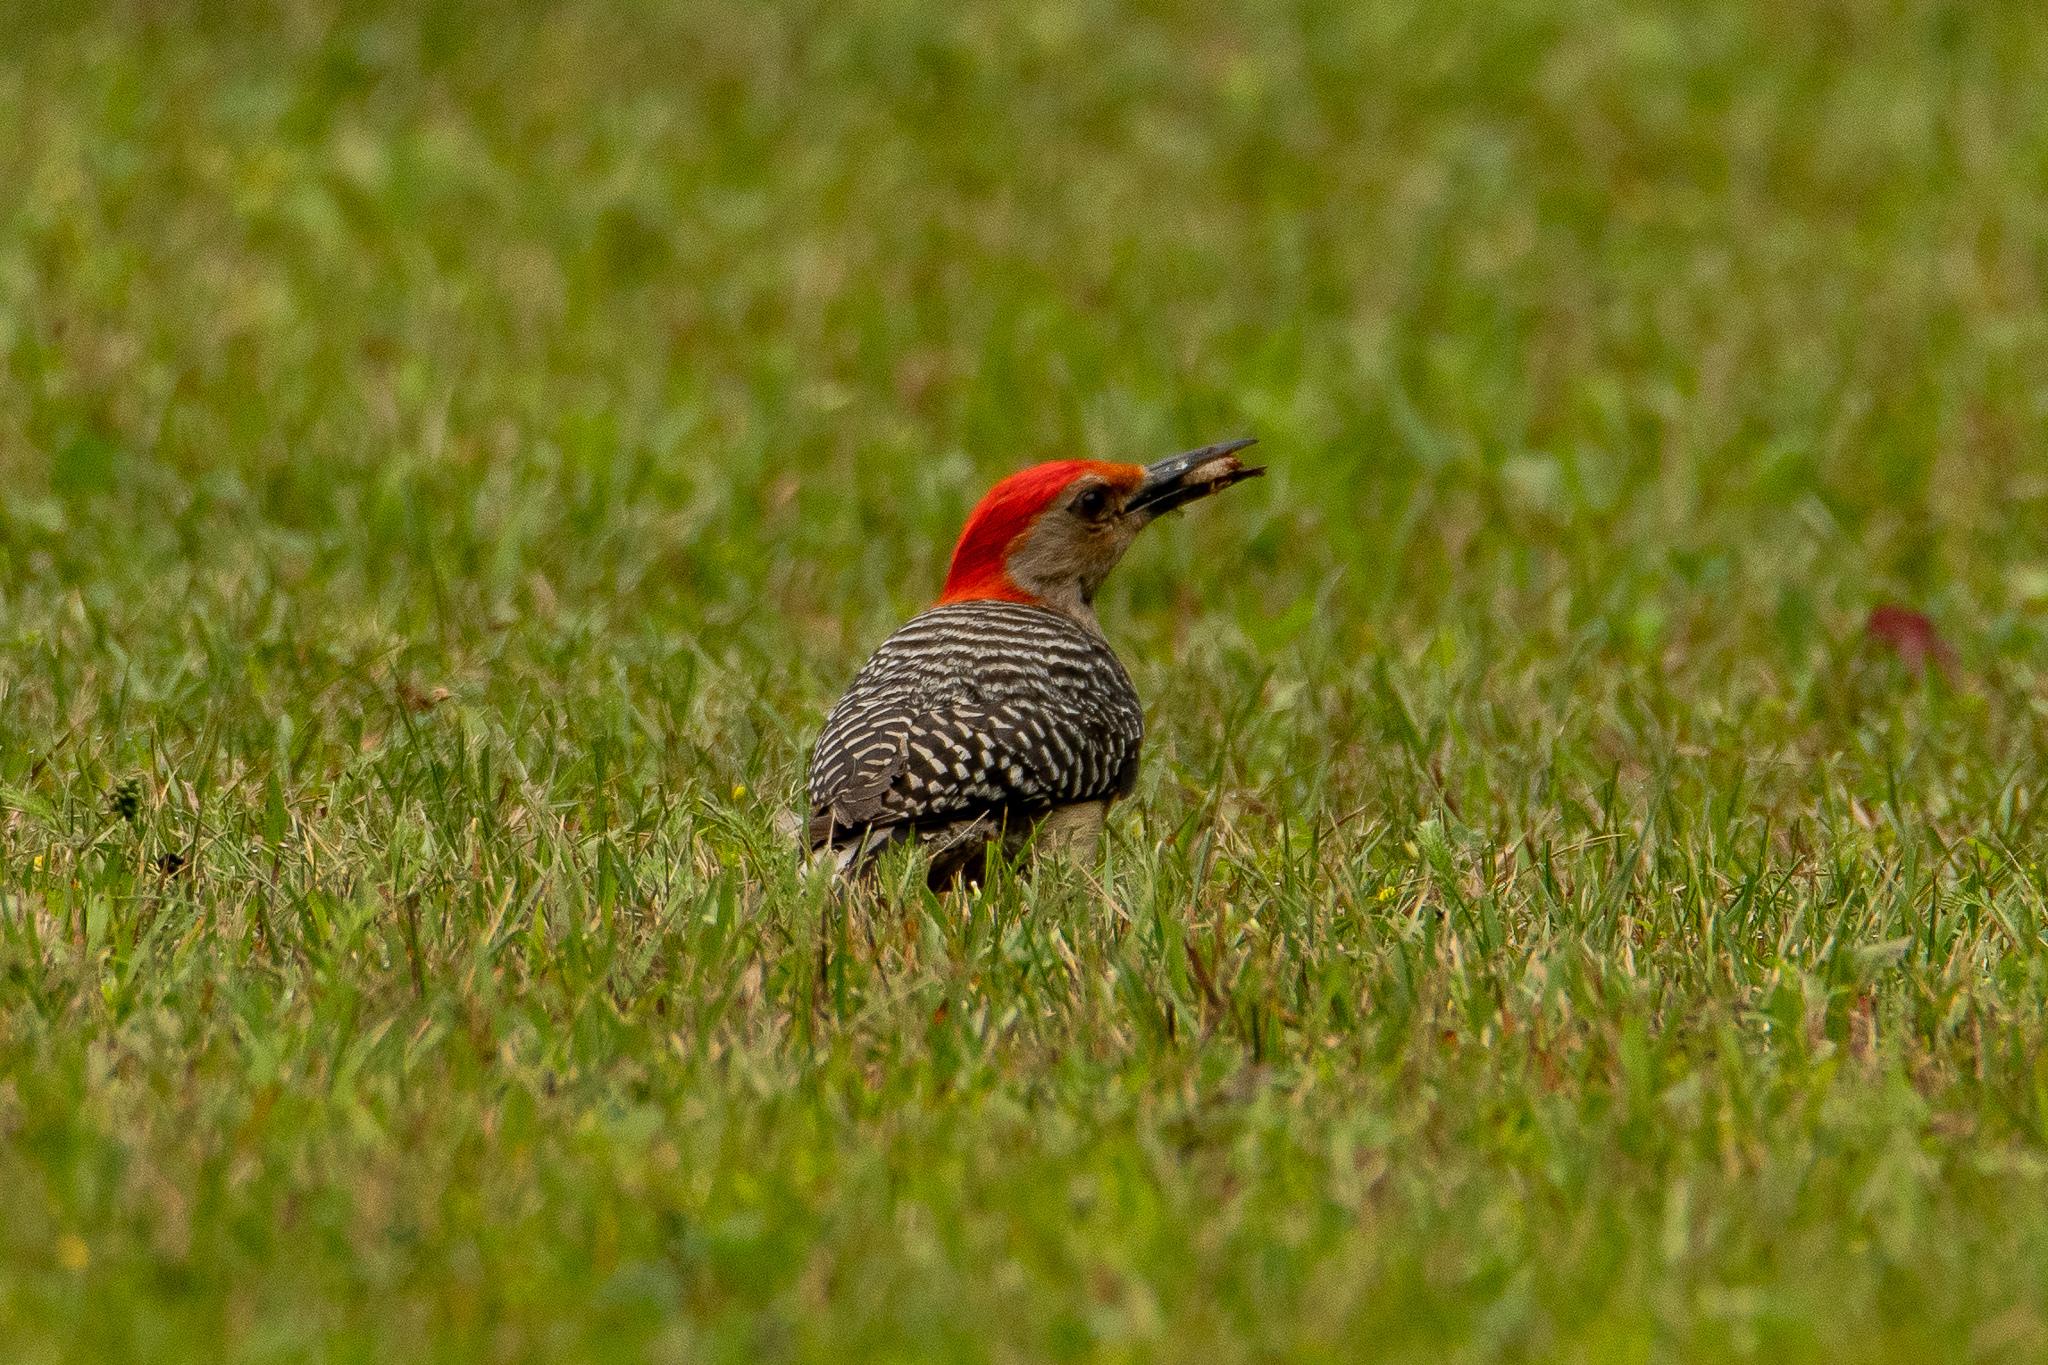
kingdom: Animalia
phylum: Chordata
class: Aves
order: Piciformes
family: Picidae
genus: Melanerpes
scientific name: Melanerpes carolinus
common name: Red-bellied woodpecker
